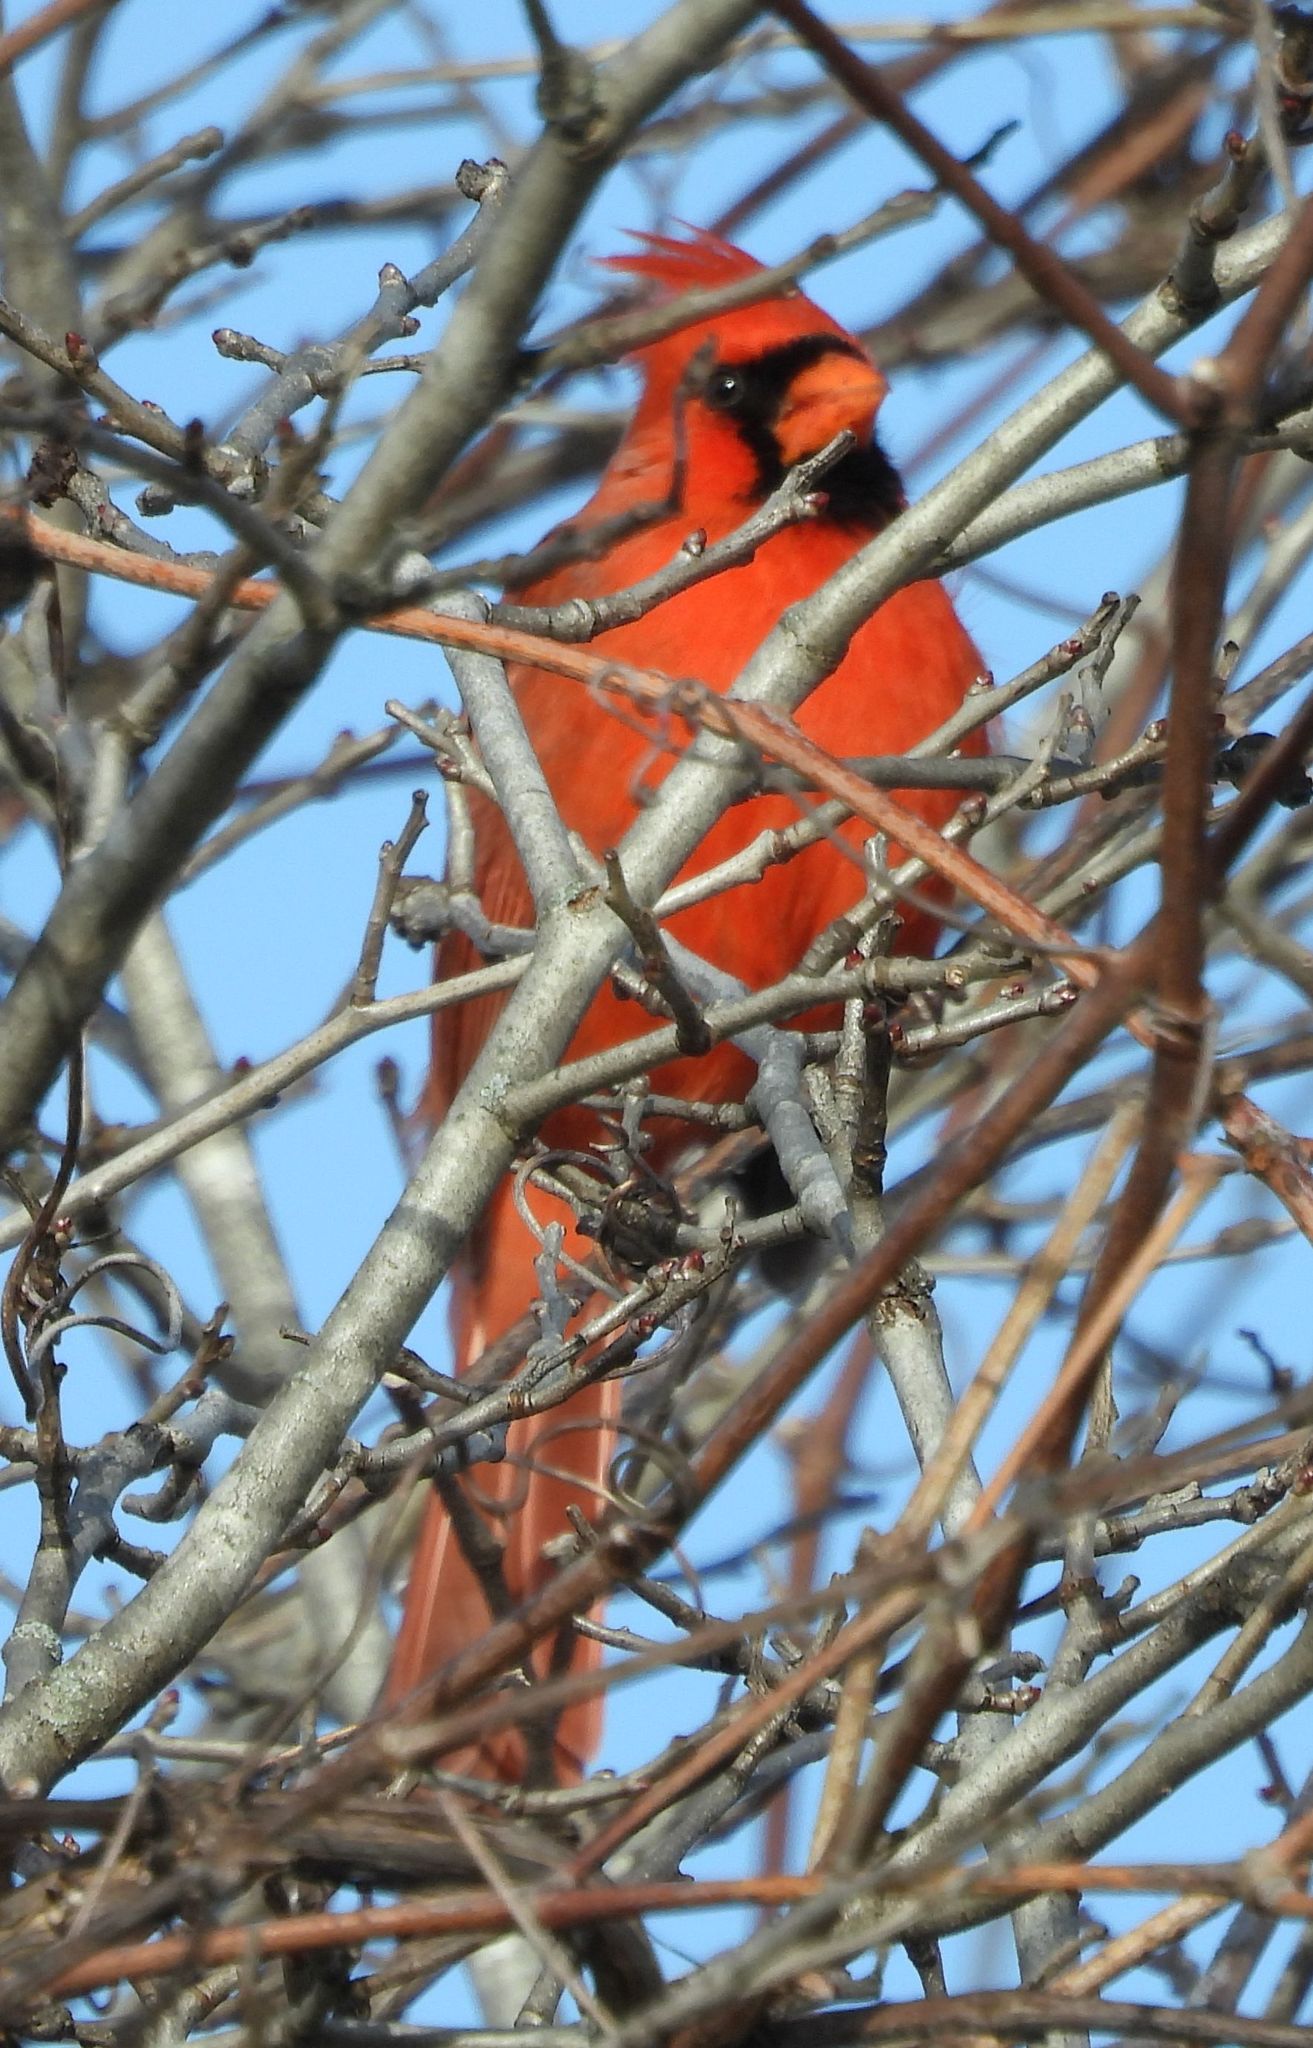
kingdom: Animalia
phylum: Chordata
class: Aves
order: Passeriformes
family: Cardinalidae
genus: Cardinalis
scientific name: Cardinalis cardinalis
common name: Northern cardinal
